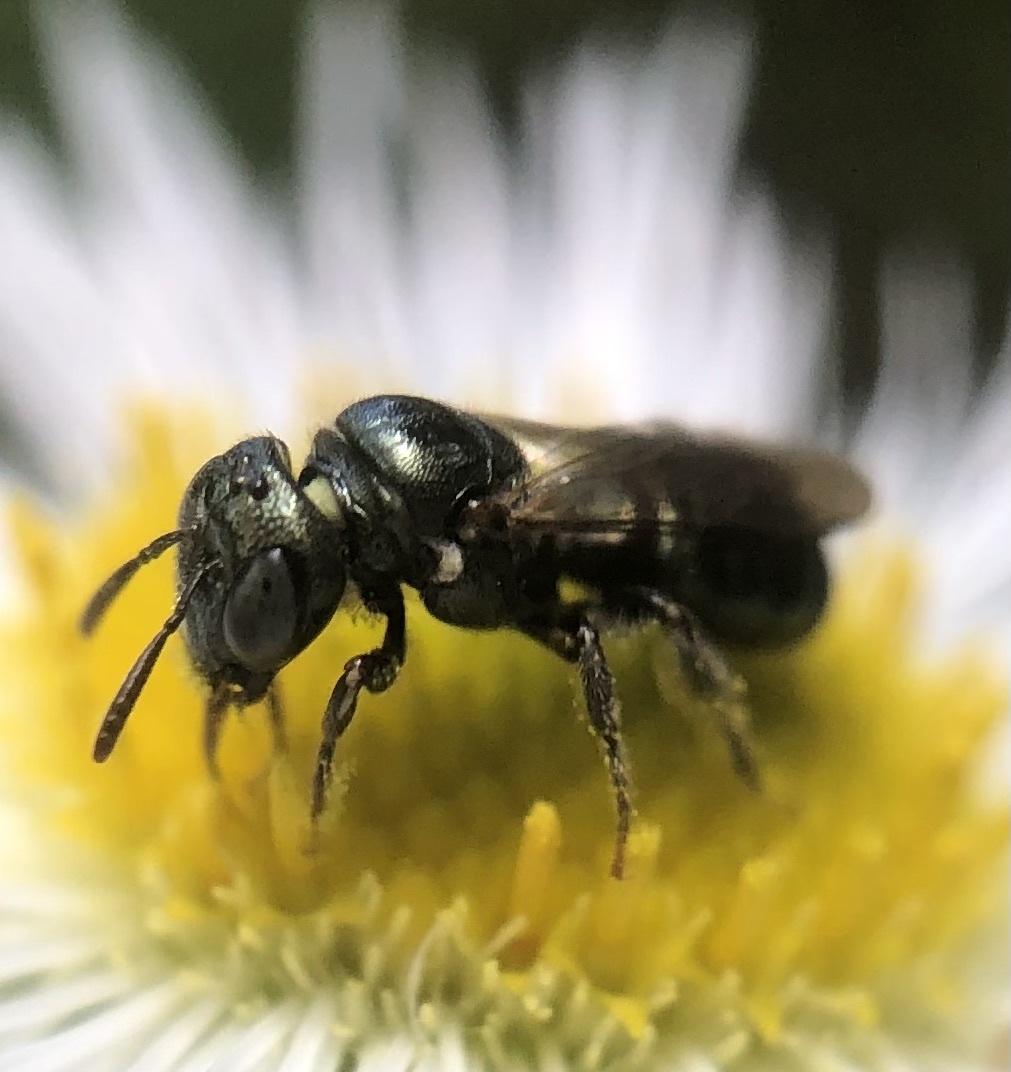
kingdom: Animalia
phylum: Arthropoda
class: Insecta
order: Hymenoptera
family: Apidae
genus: Ceratina
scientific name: Ceratina strenua
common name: Nimble carpenter bee
